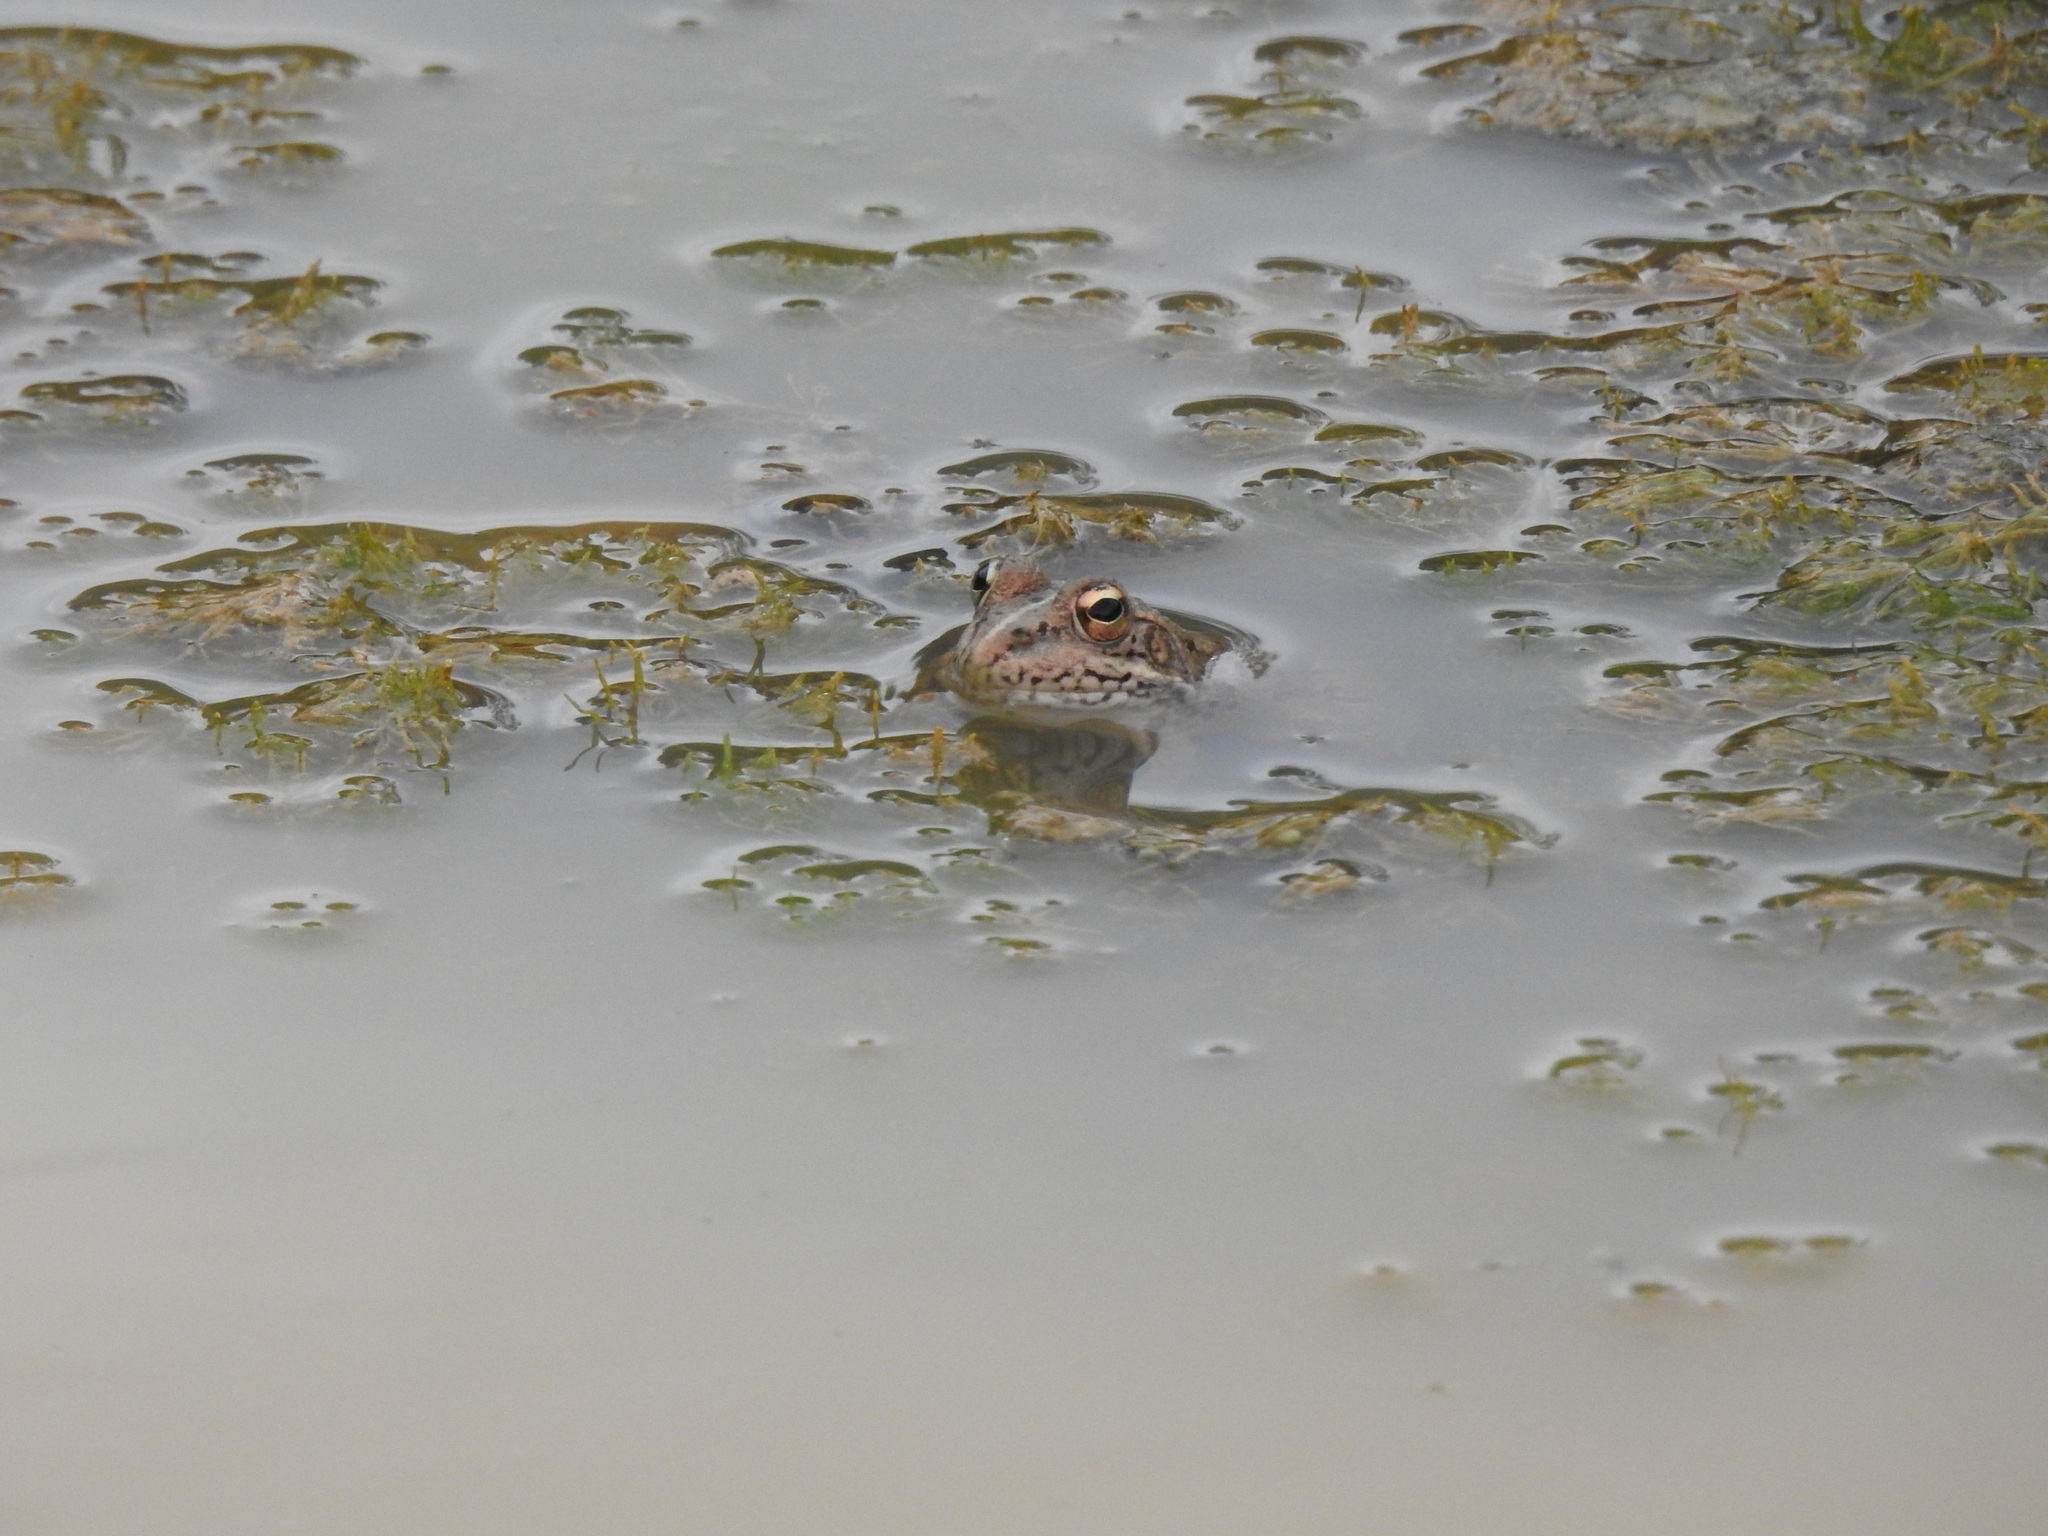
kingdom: Animalia
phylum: Chordata
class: Amphibia
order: Anura
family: Ranidae
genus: Pelophylax
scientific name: Pelophylax perezi
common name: Perez's frog
